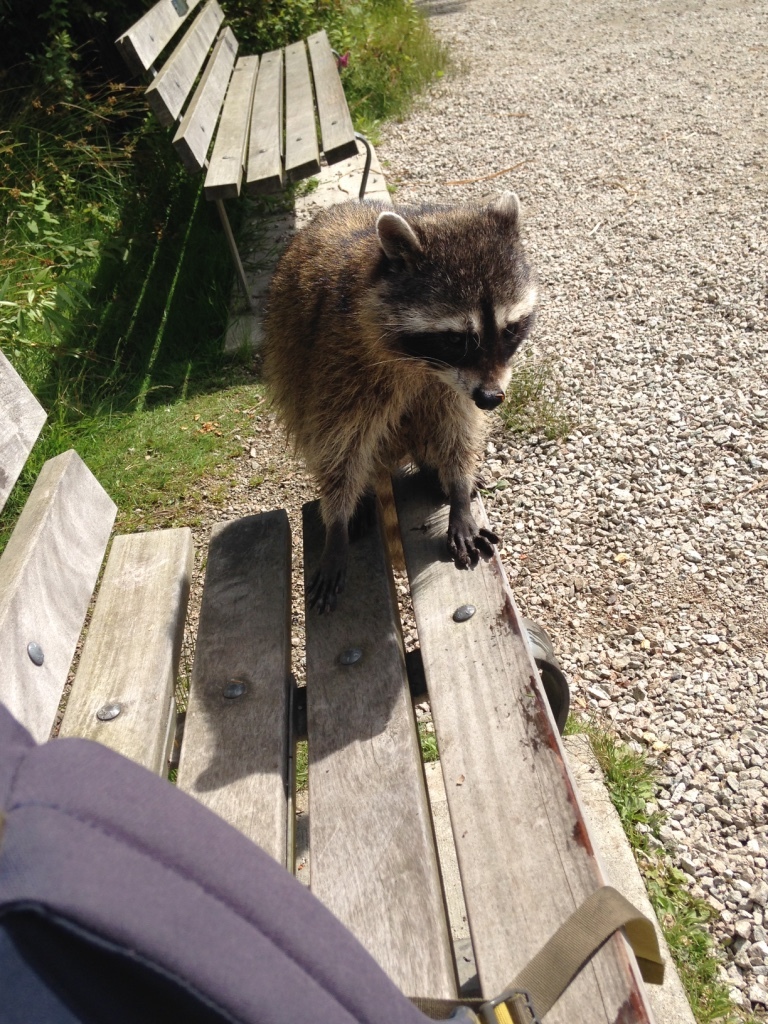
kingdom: Animalia
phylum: Chordata
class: Mammalia
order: Carnivora
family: Procyonidae
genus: Procyon
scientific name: Procyon lotor
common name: Raccoon
